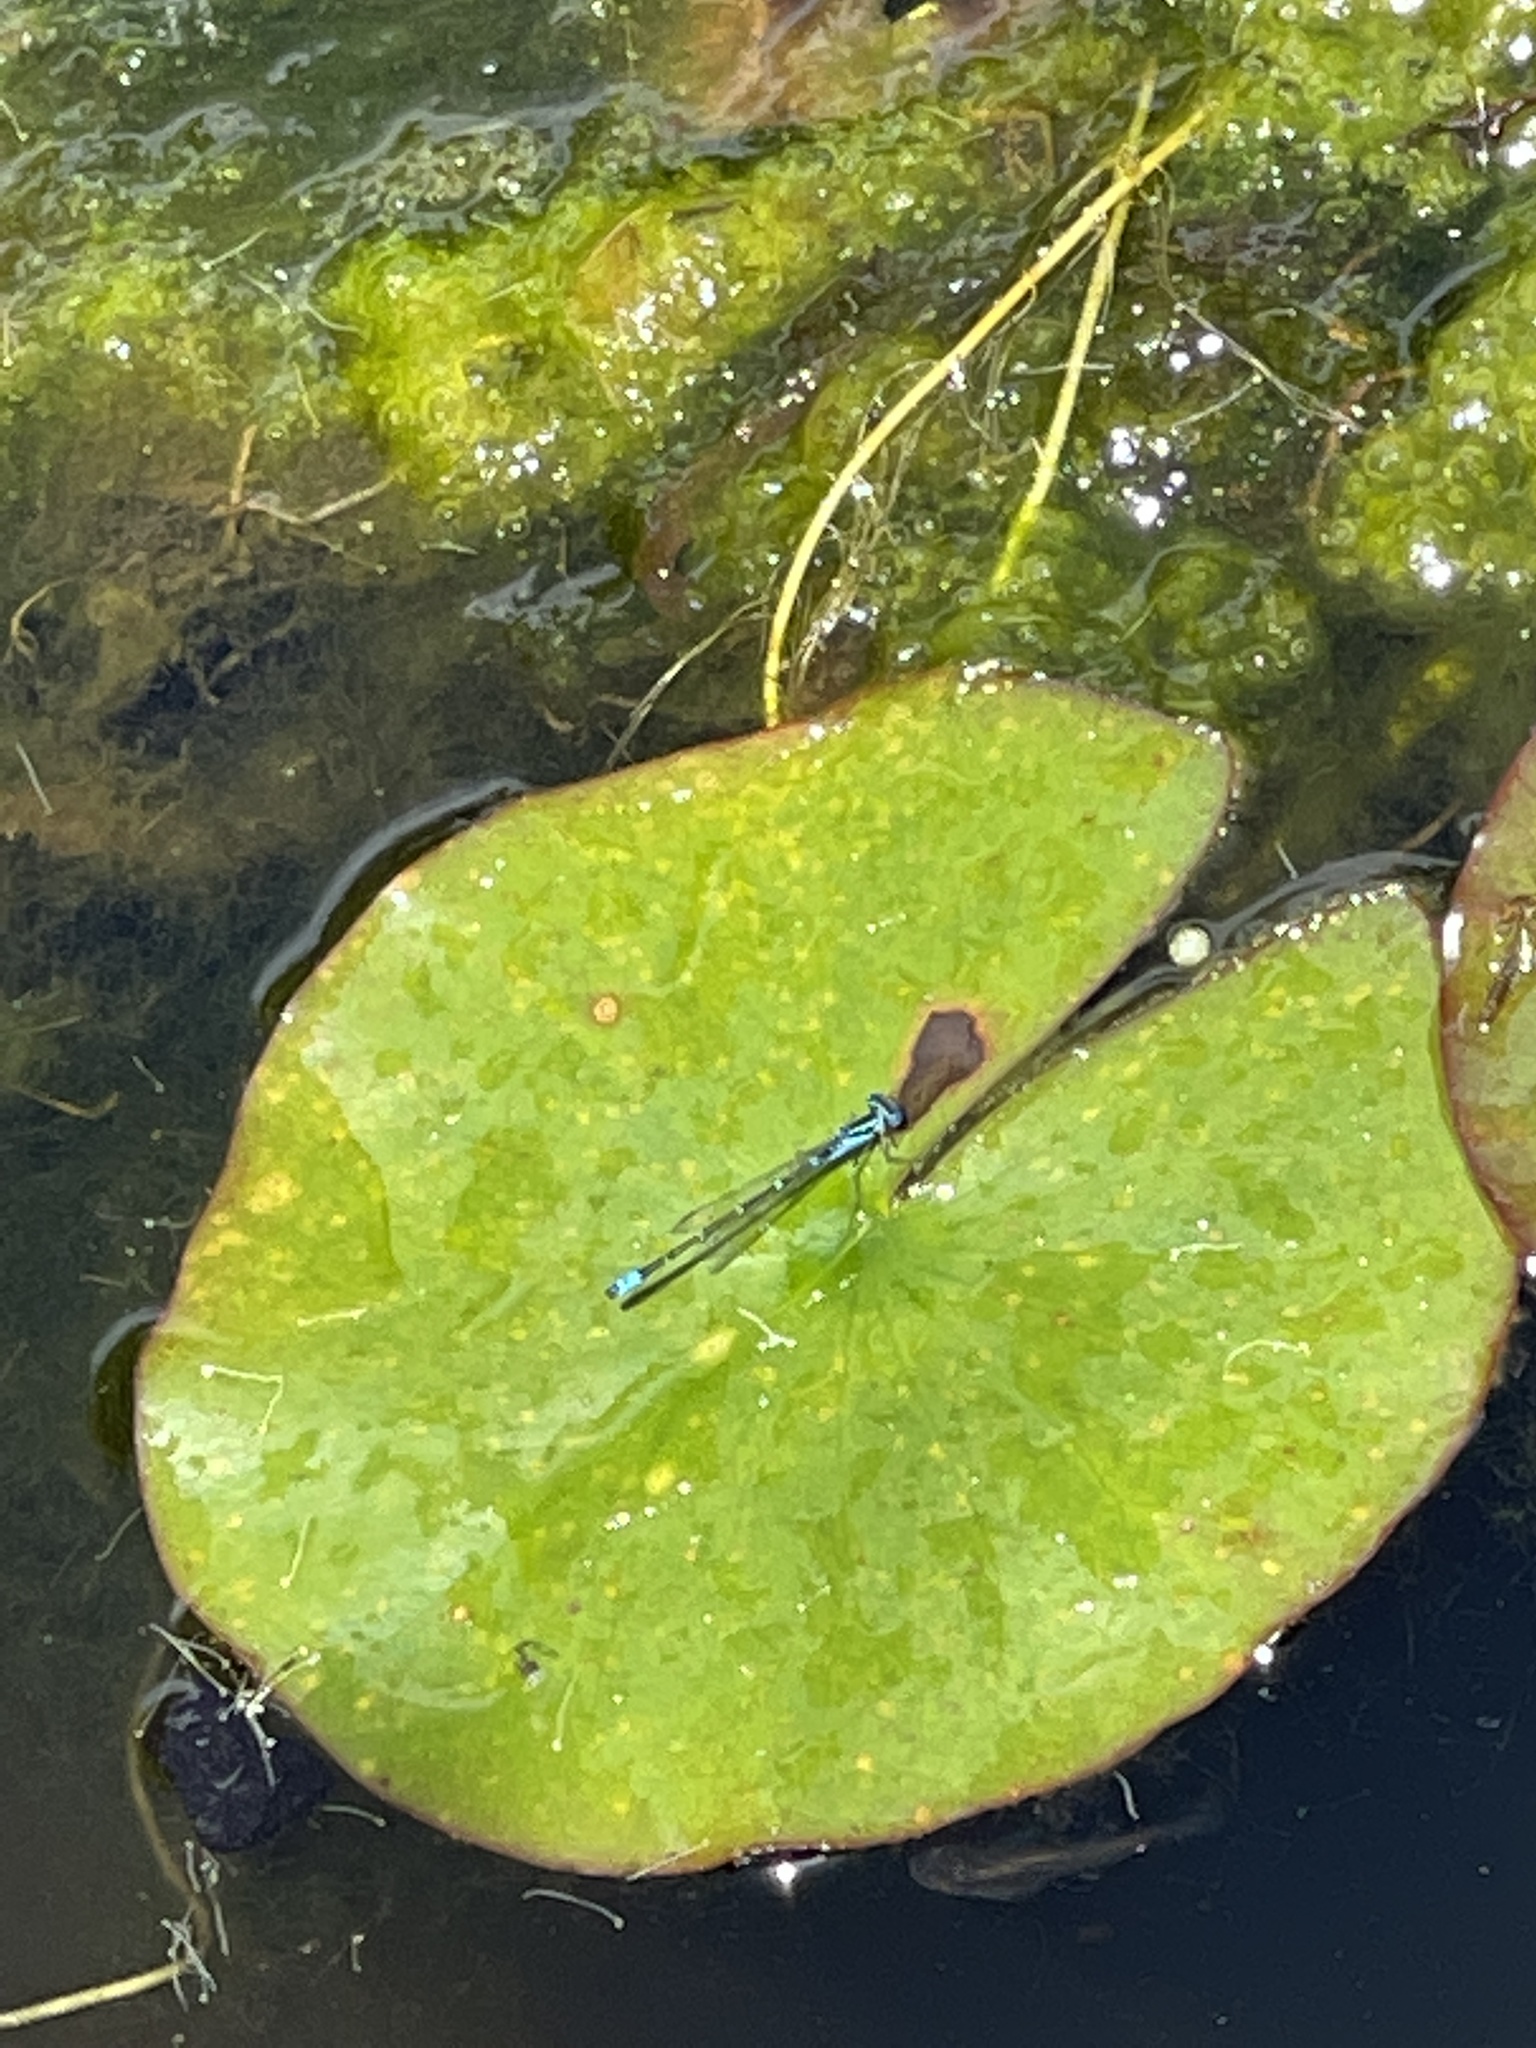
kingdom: Animalia
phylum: Arthropoda
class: Insecta
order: Odonata
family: Coenagrionidae
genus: Austroagrion
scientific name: Austroagrion watsoni
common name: Eastern billabongfly
